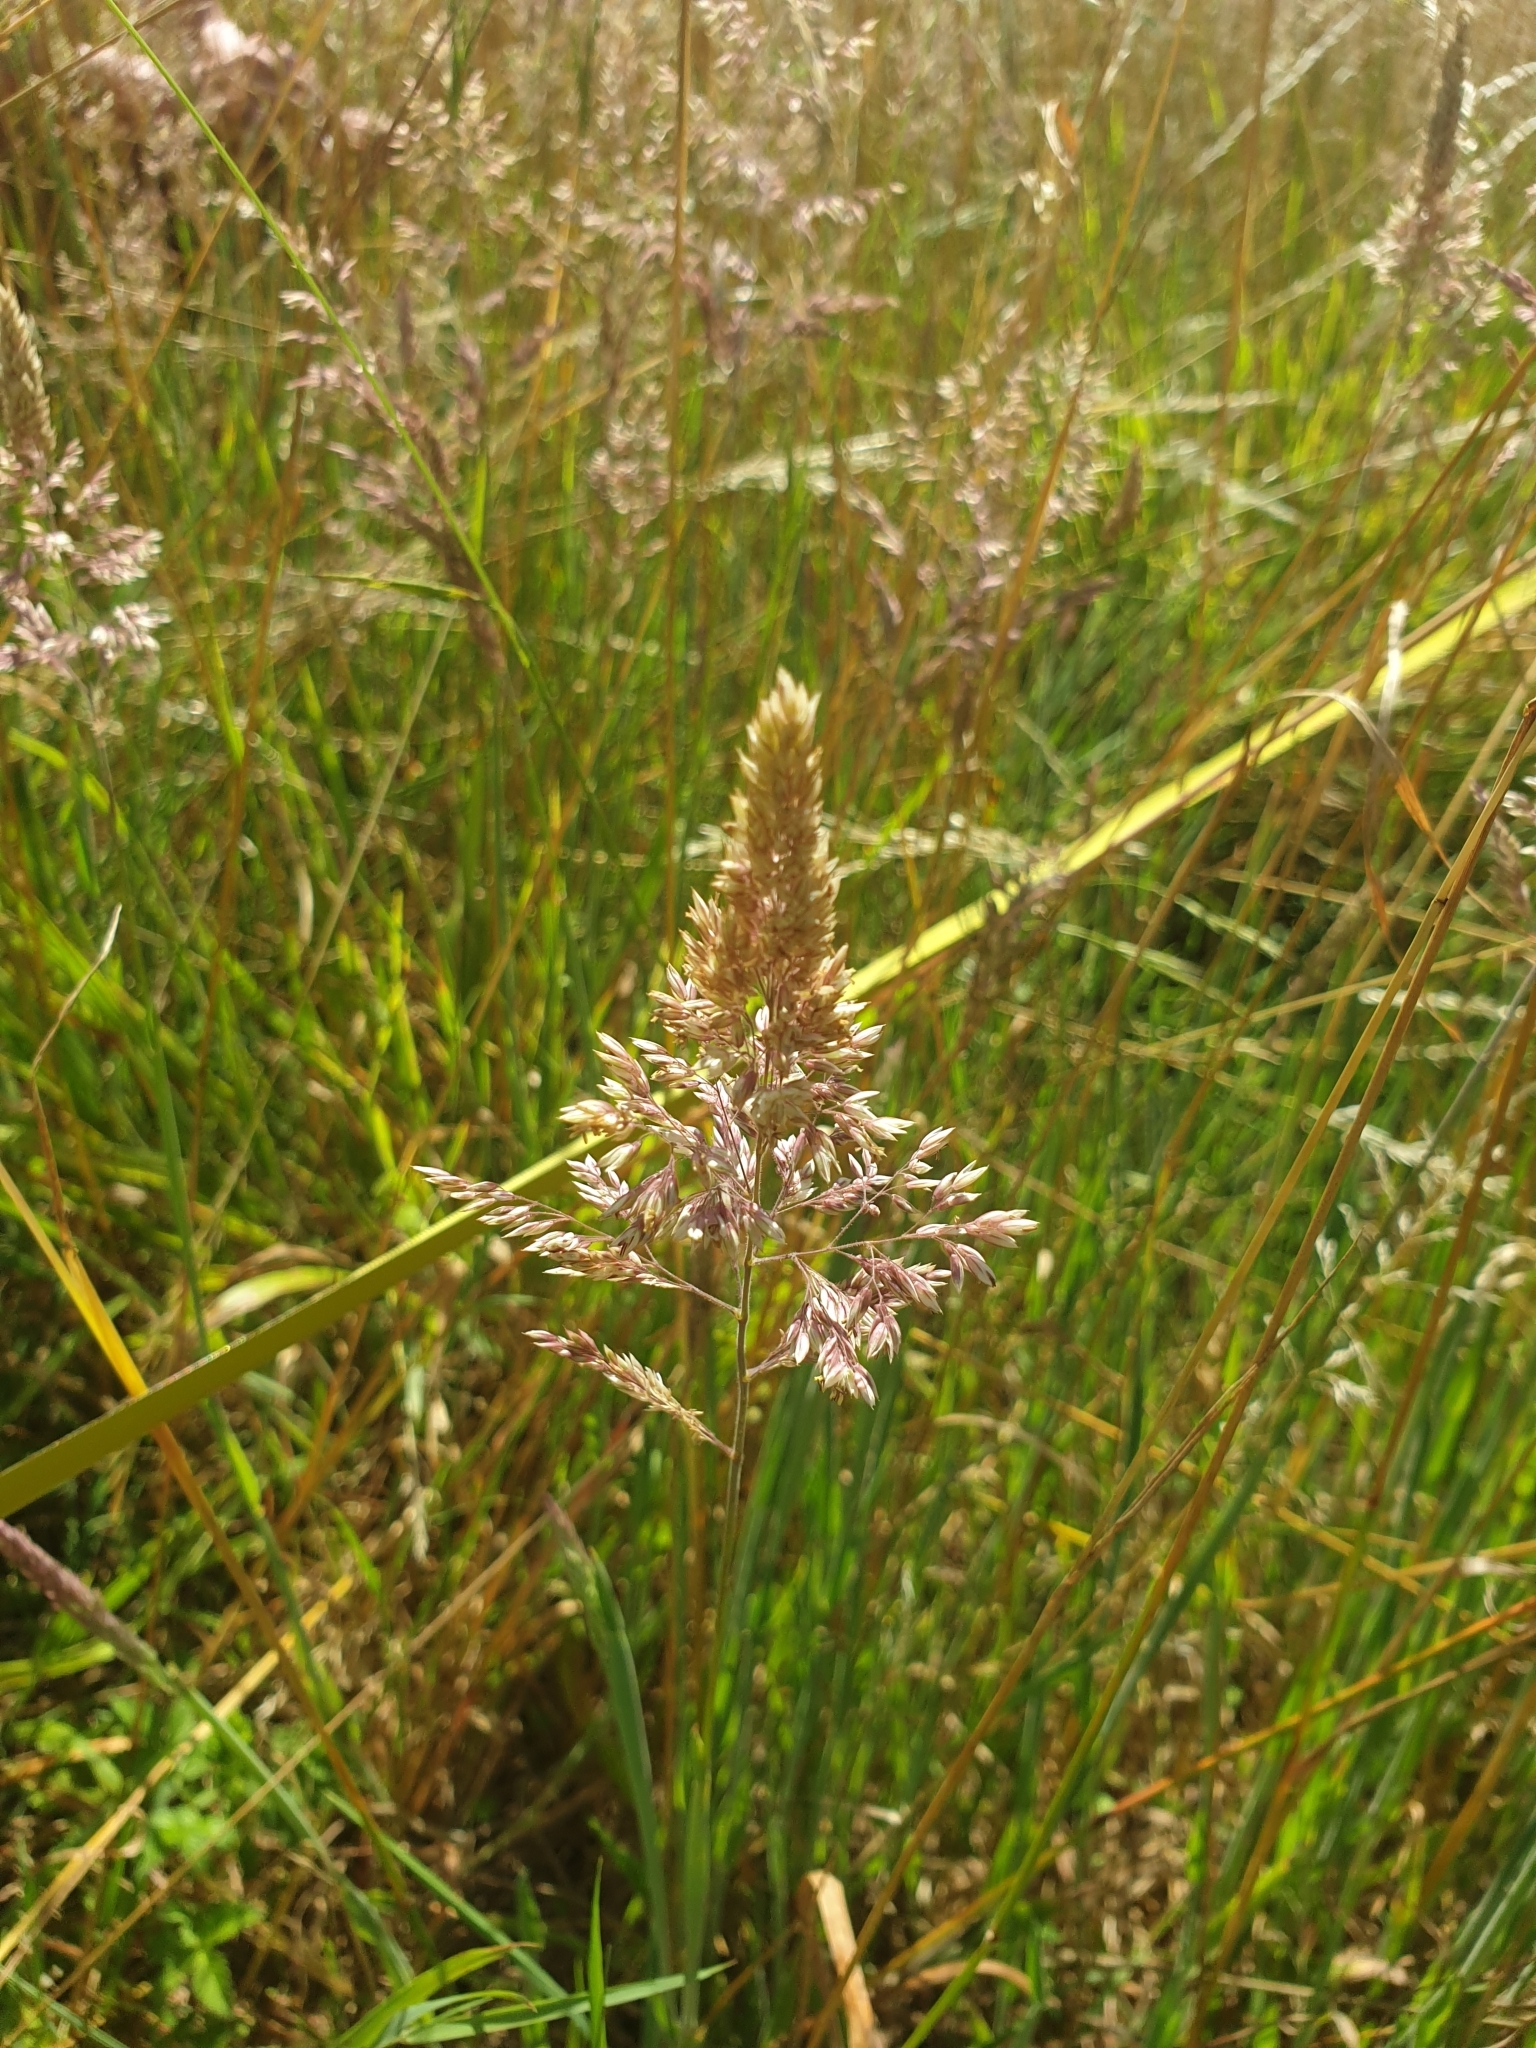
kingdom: Plantae
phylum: Tracheophyta
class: Liliopsida
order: Poales
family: Poaceae
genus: Holcus
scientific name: Holcus lanatus
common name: Yorkshire-fog
